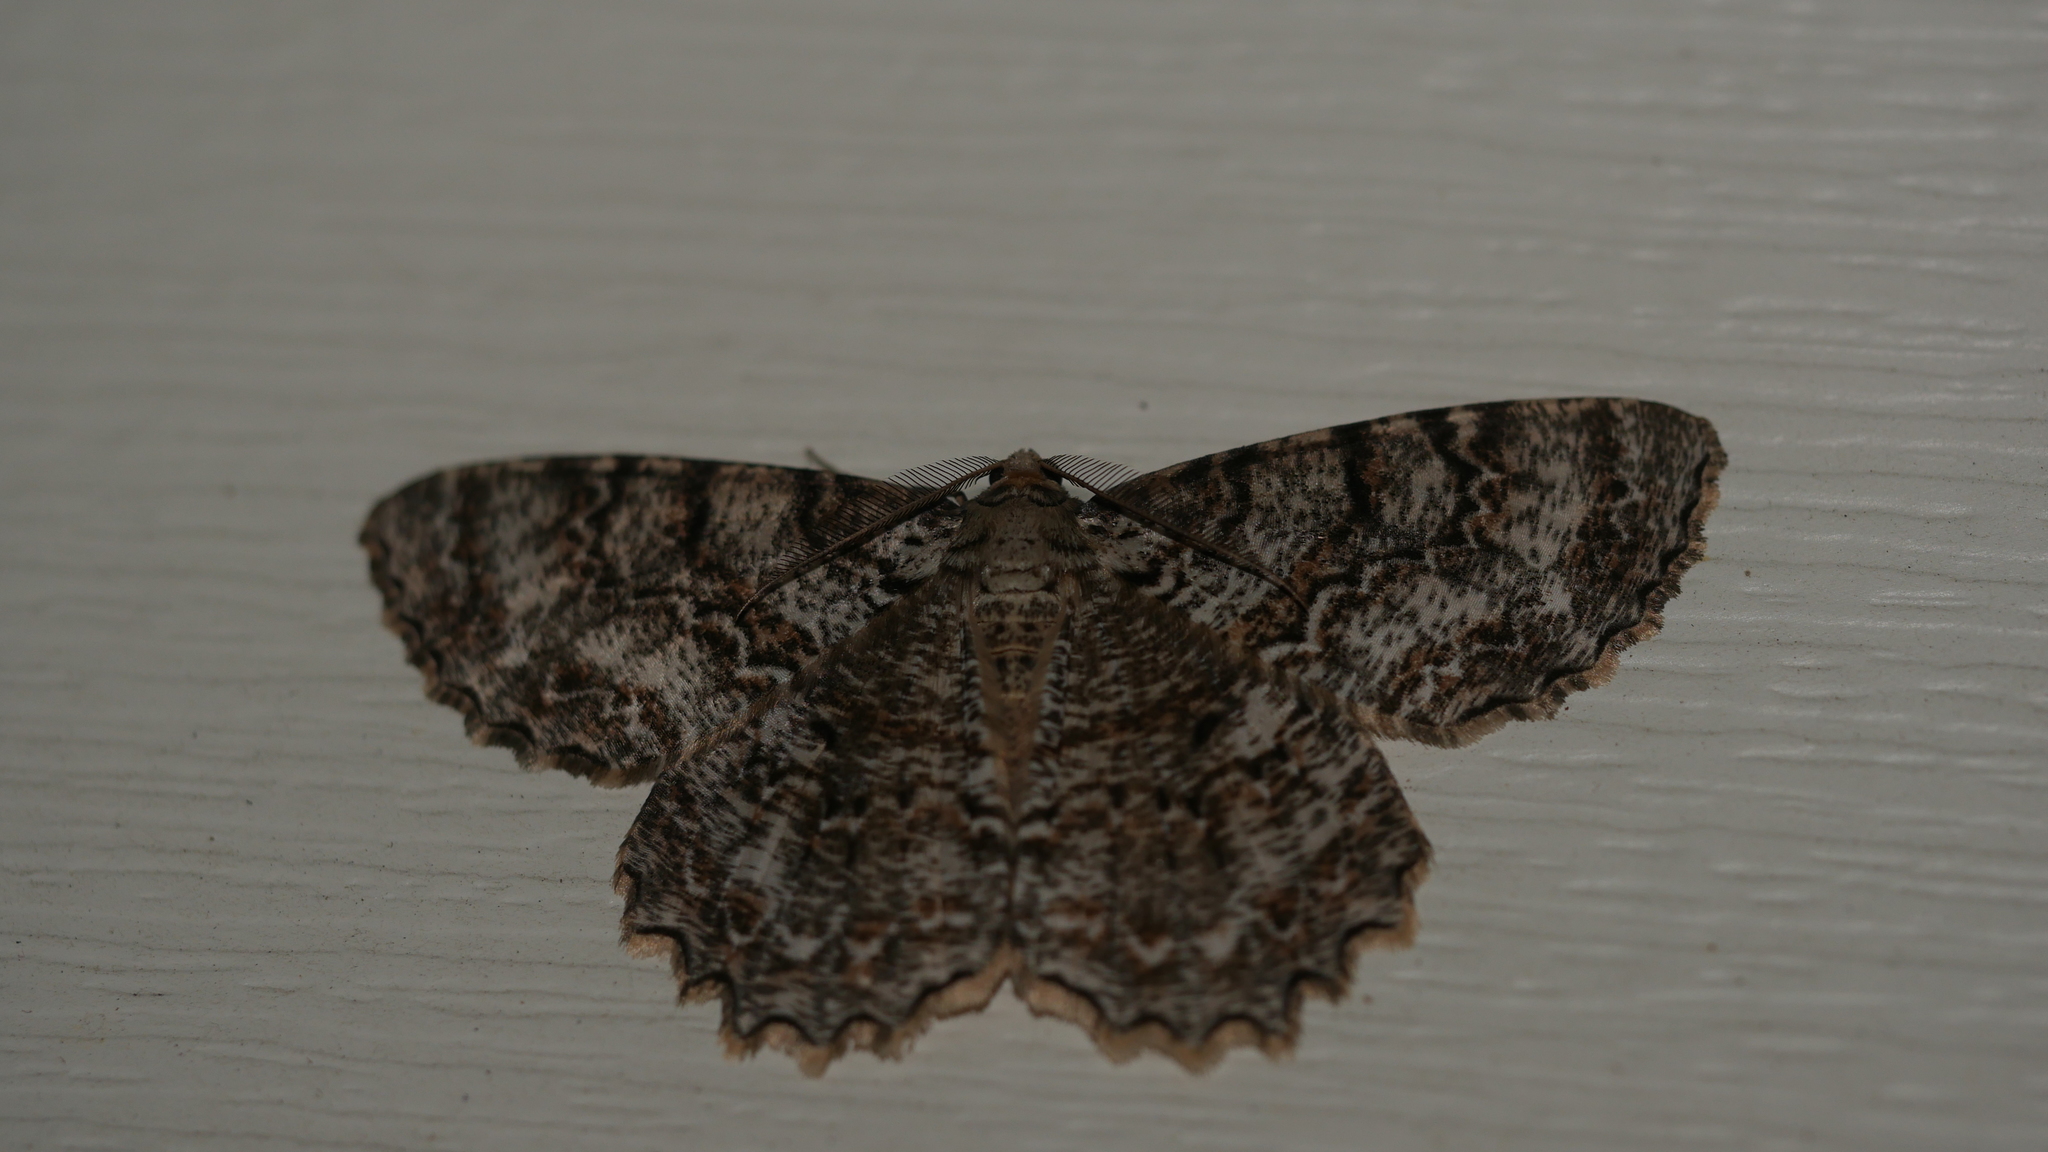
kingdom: Animalia
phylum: Arthropoda
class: Insecta
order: Lepidoptera
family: Geometridae
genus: Epimecis
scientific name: Epimecis hortaria
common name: Tulip-tree beauty
